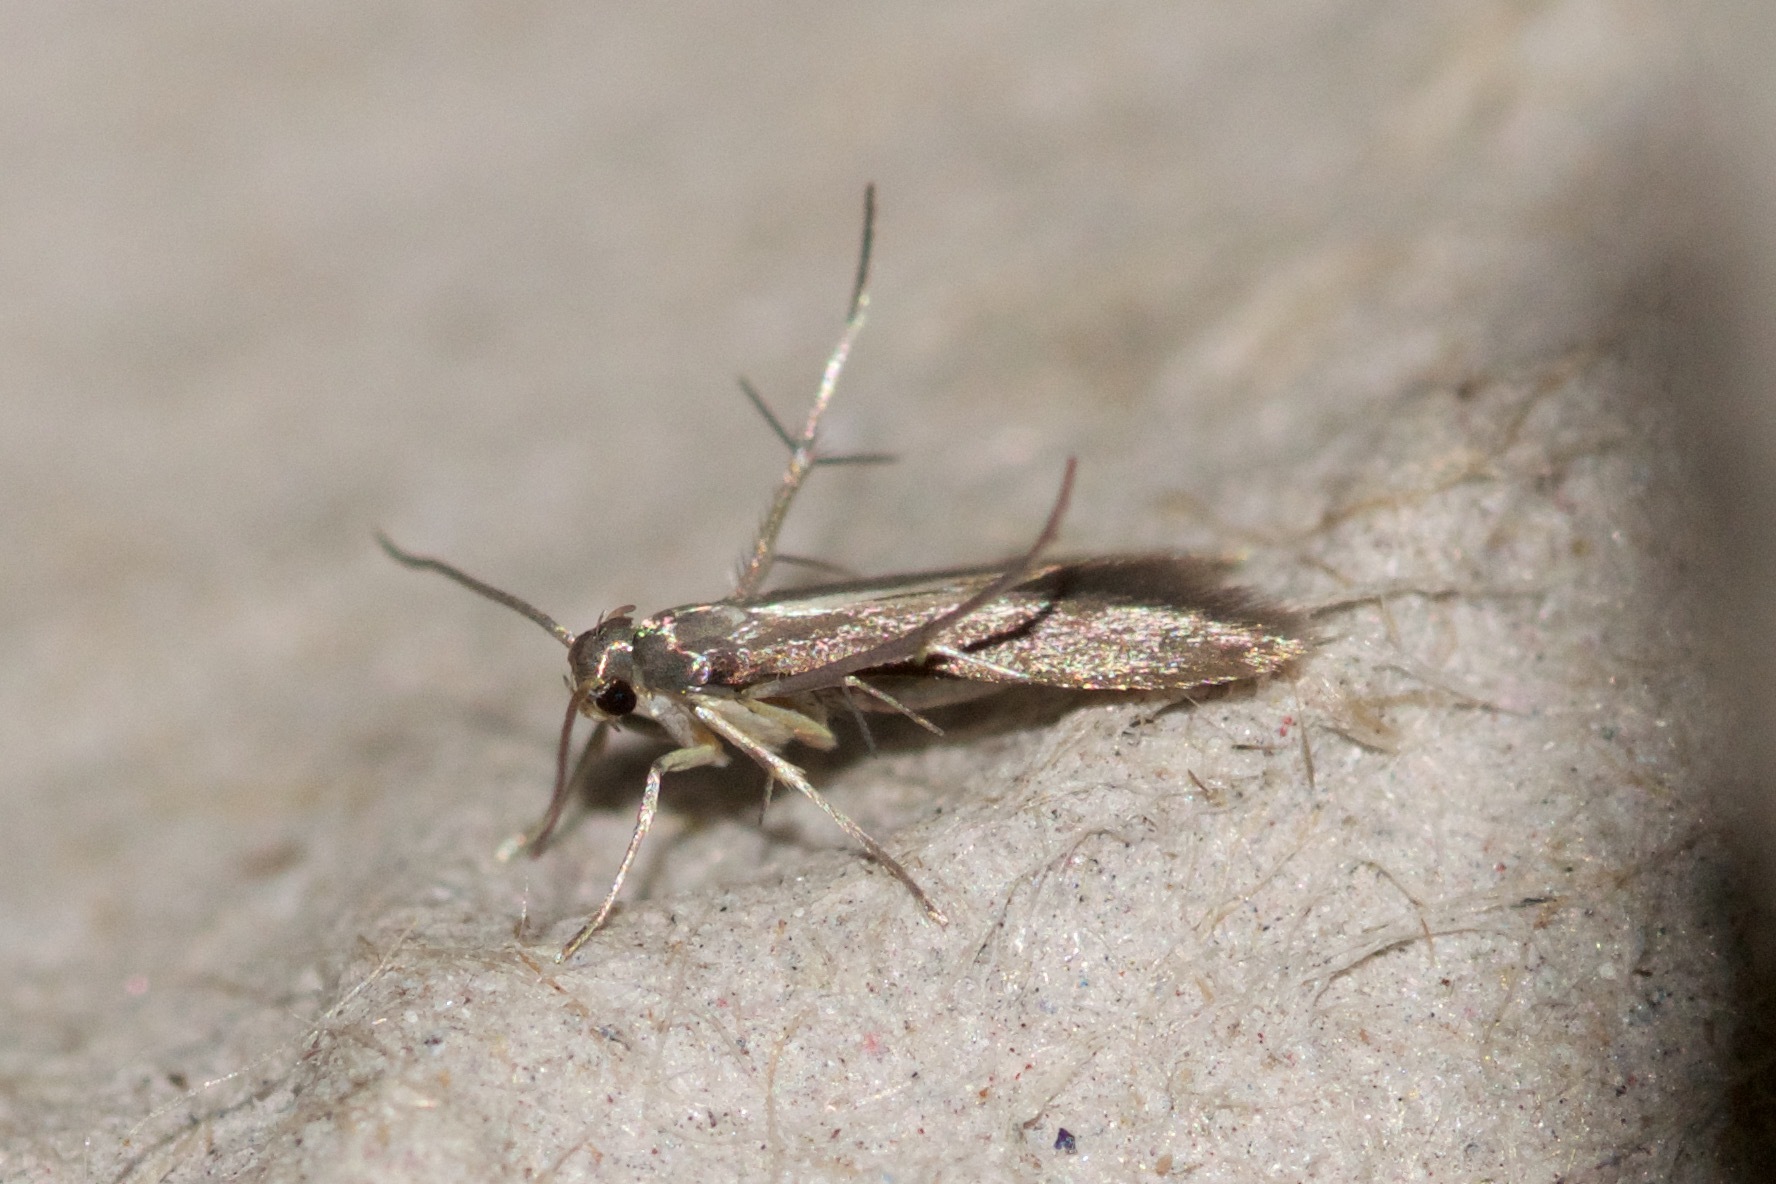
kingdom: Animalia
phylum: Arthropoda
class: Insecta
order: Lepidoptera
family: Schreckensteiniidae
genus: Schreckensteinia
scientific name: Schreckensteinia erythriella
